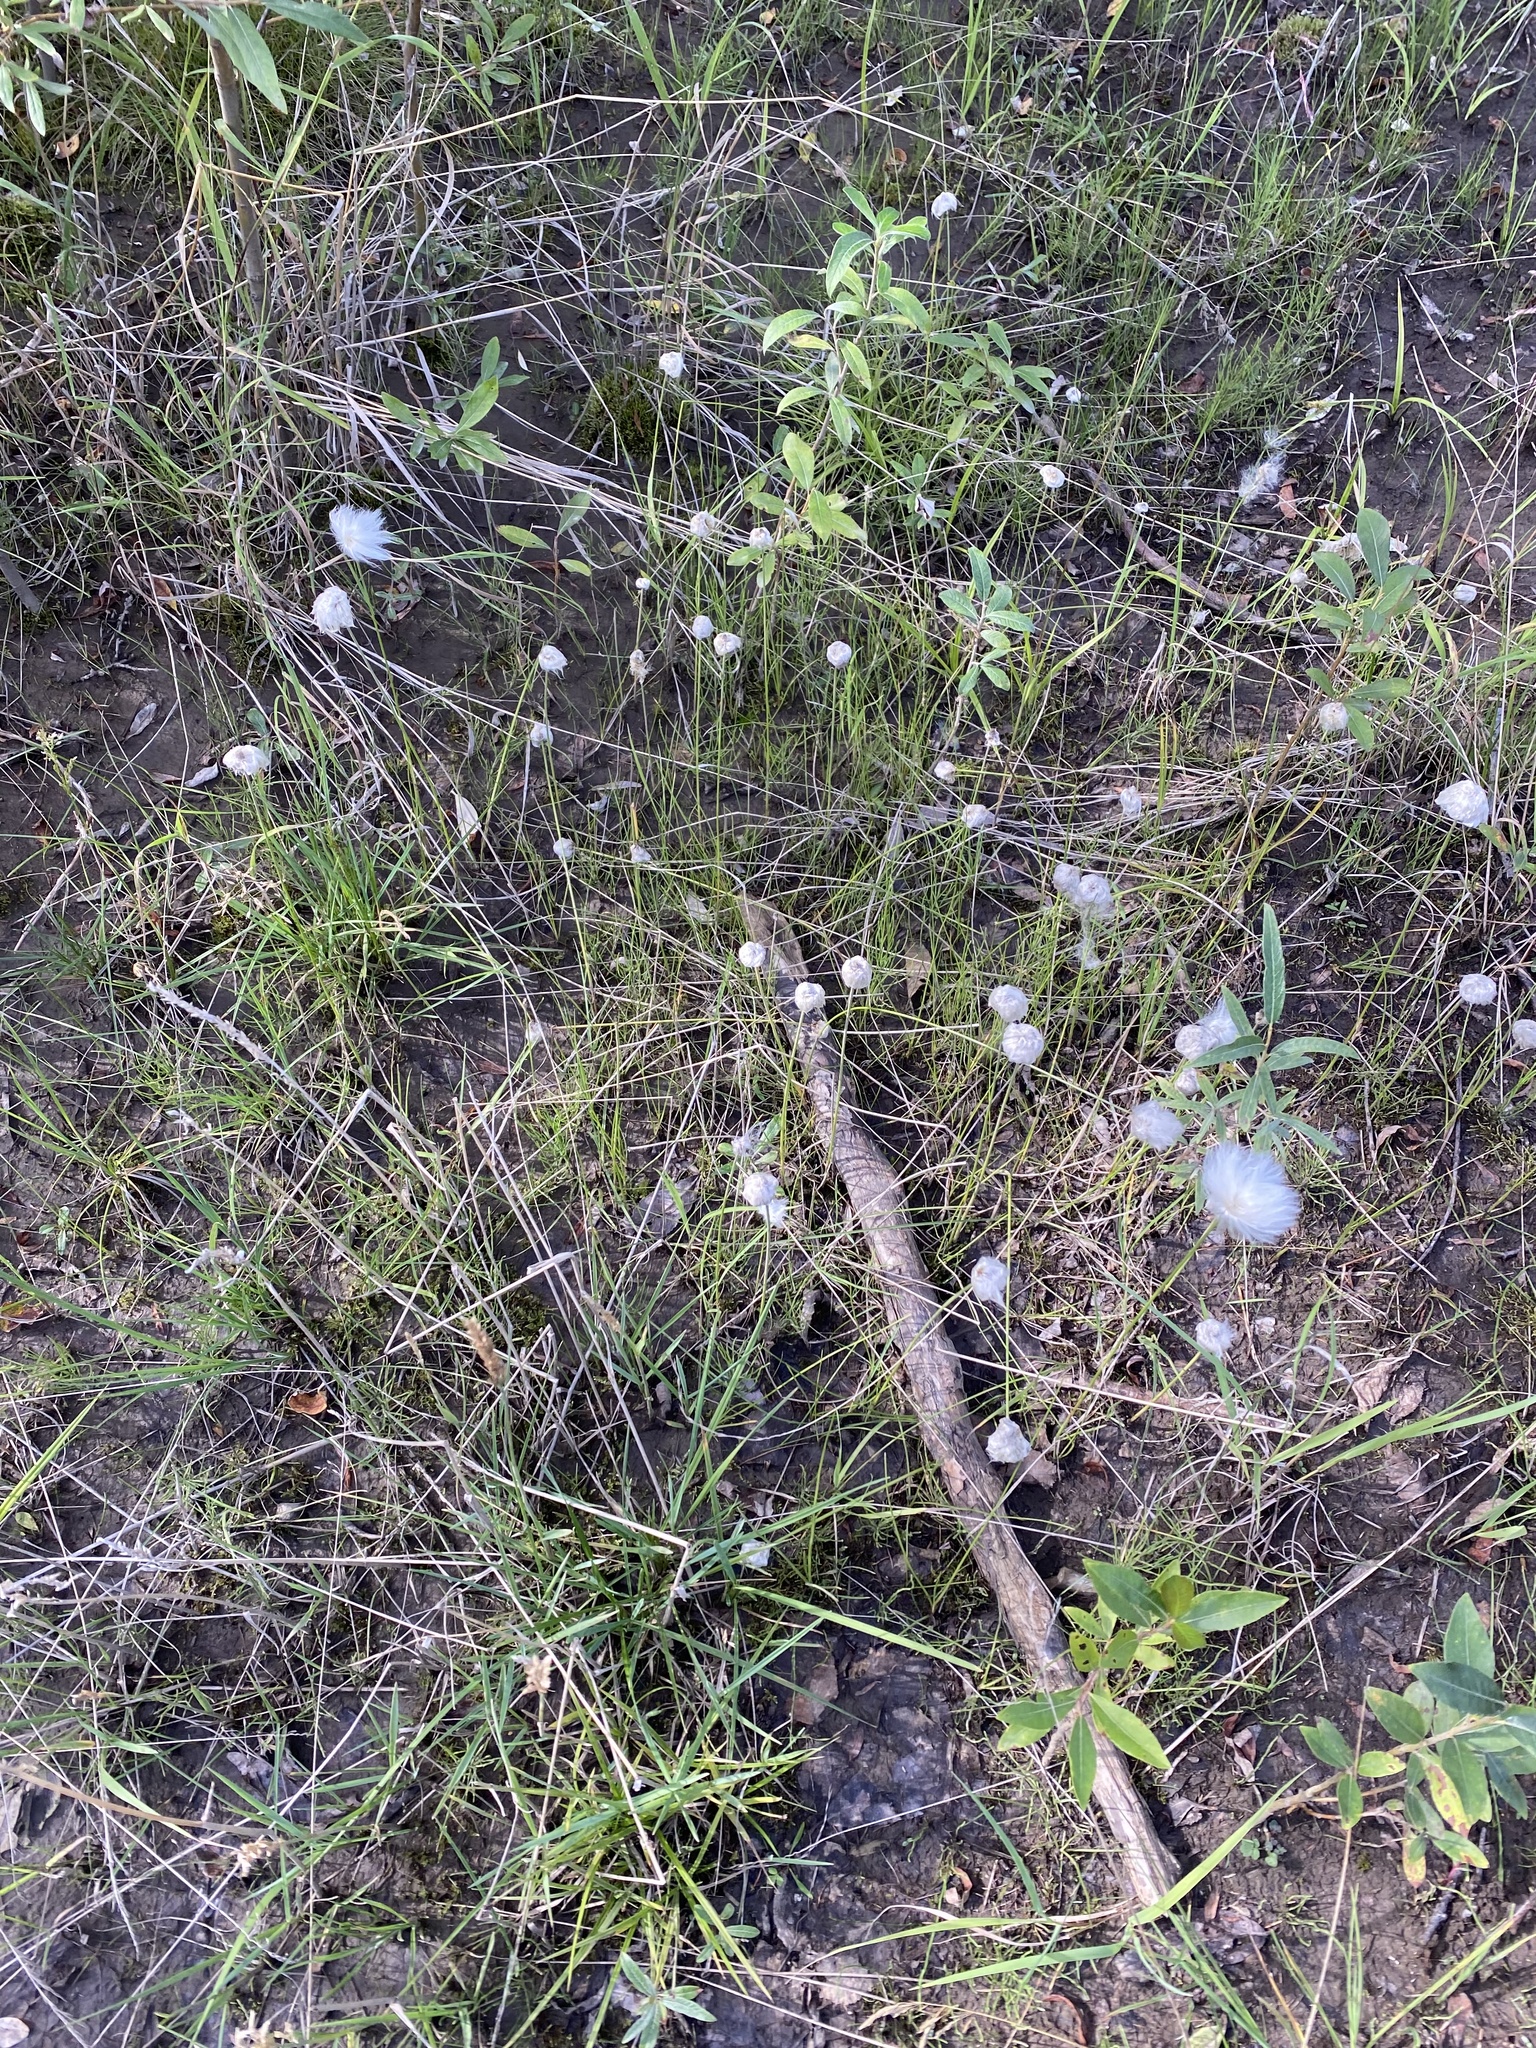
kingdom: Plantae
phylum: Tracheophyta
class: Liliopsida
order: Poales
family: Cyperaceae
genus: Eriophorum
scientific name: Eriophorum scheuchzeri
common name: Scheuchzer's cottongrass
